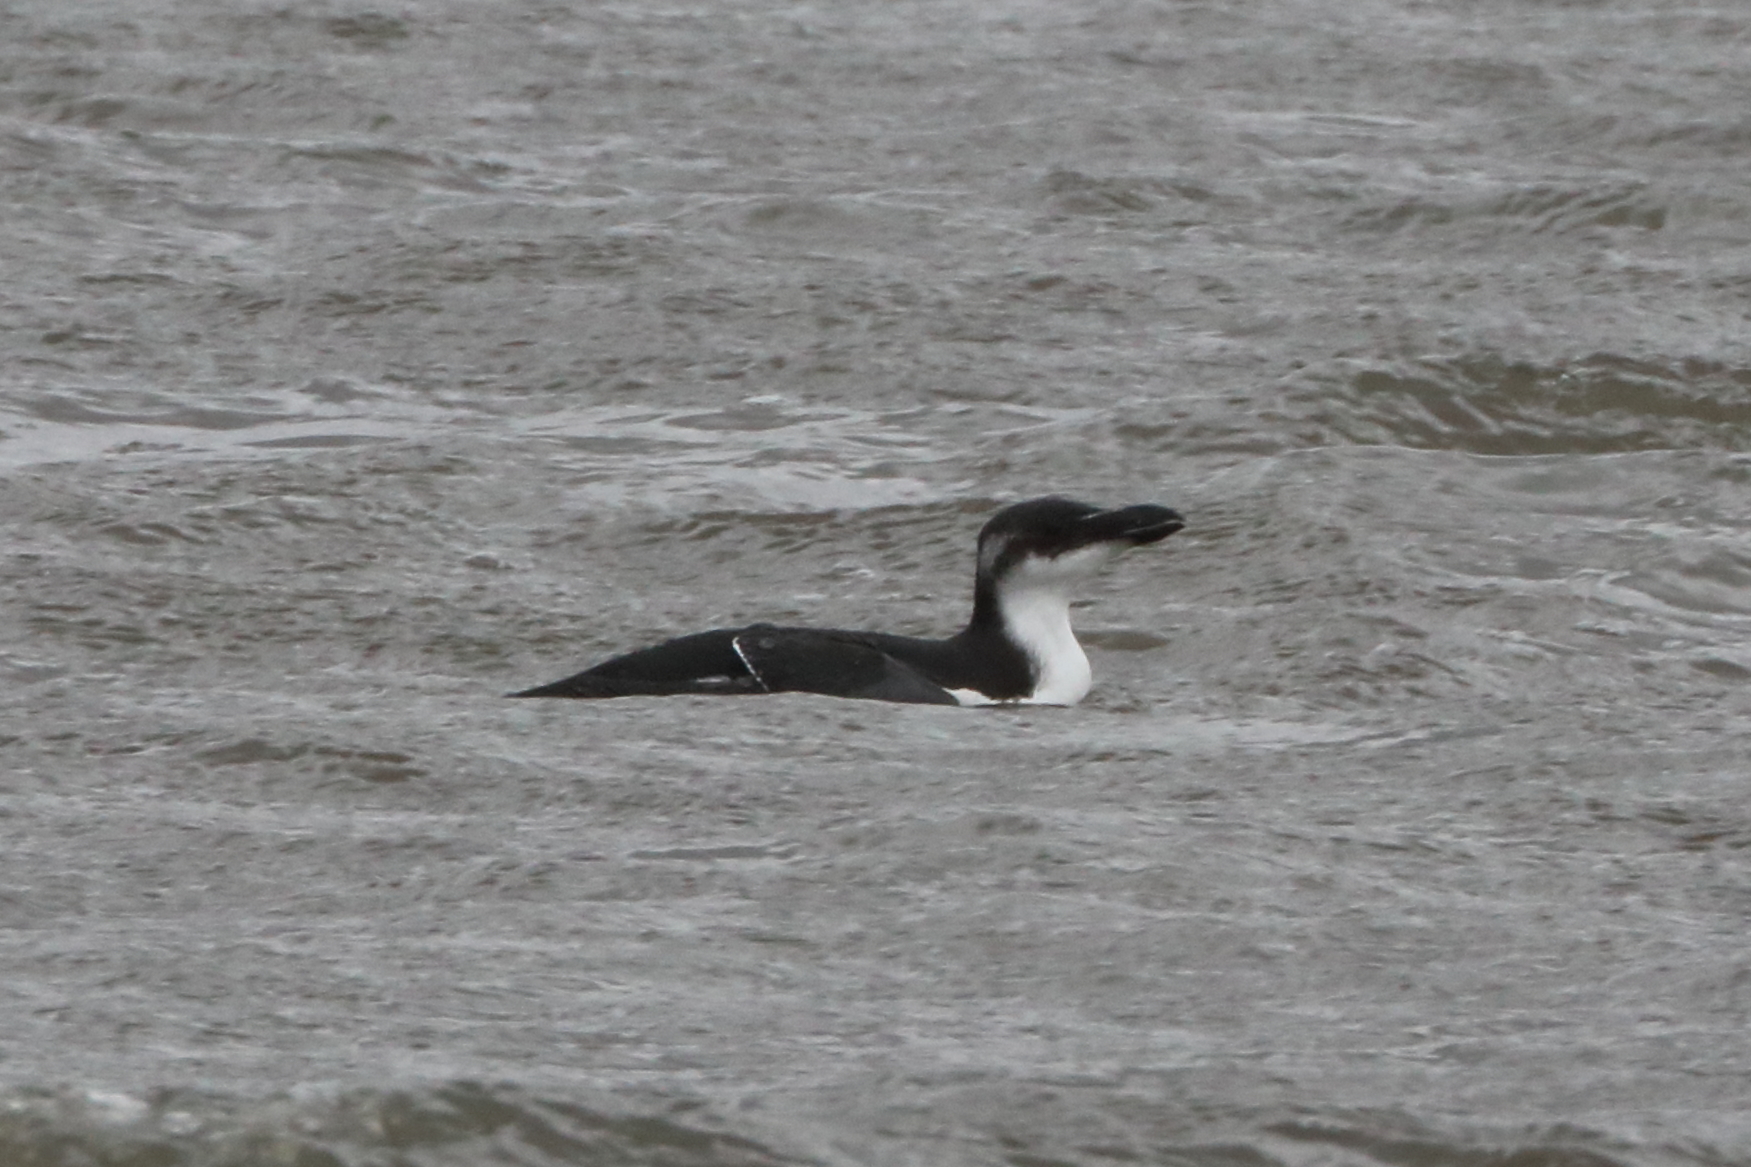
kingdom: Animalia
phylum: Chordata
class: Aves
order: Charadriiformes
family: Alcidae
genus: Alca
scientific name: Alca torda
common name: Razorbill
